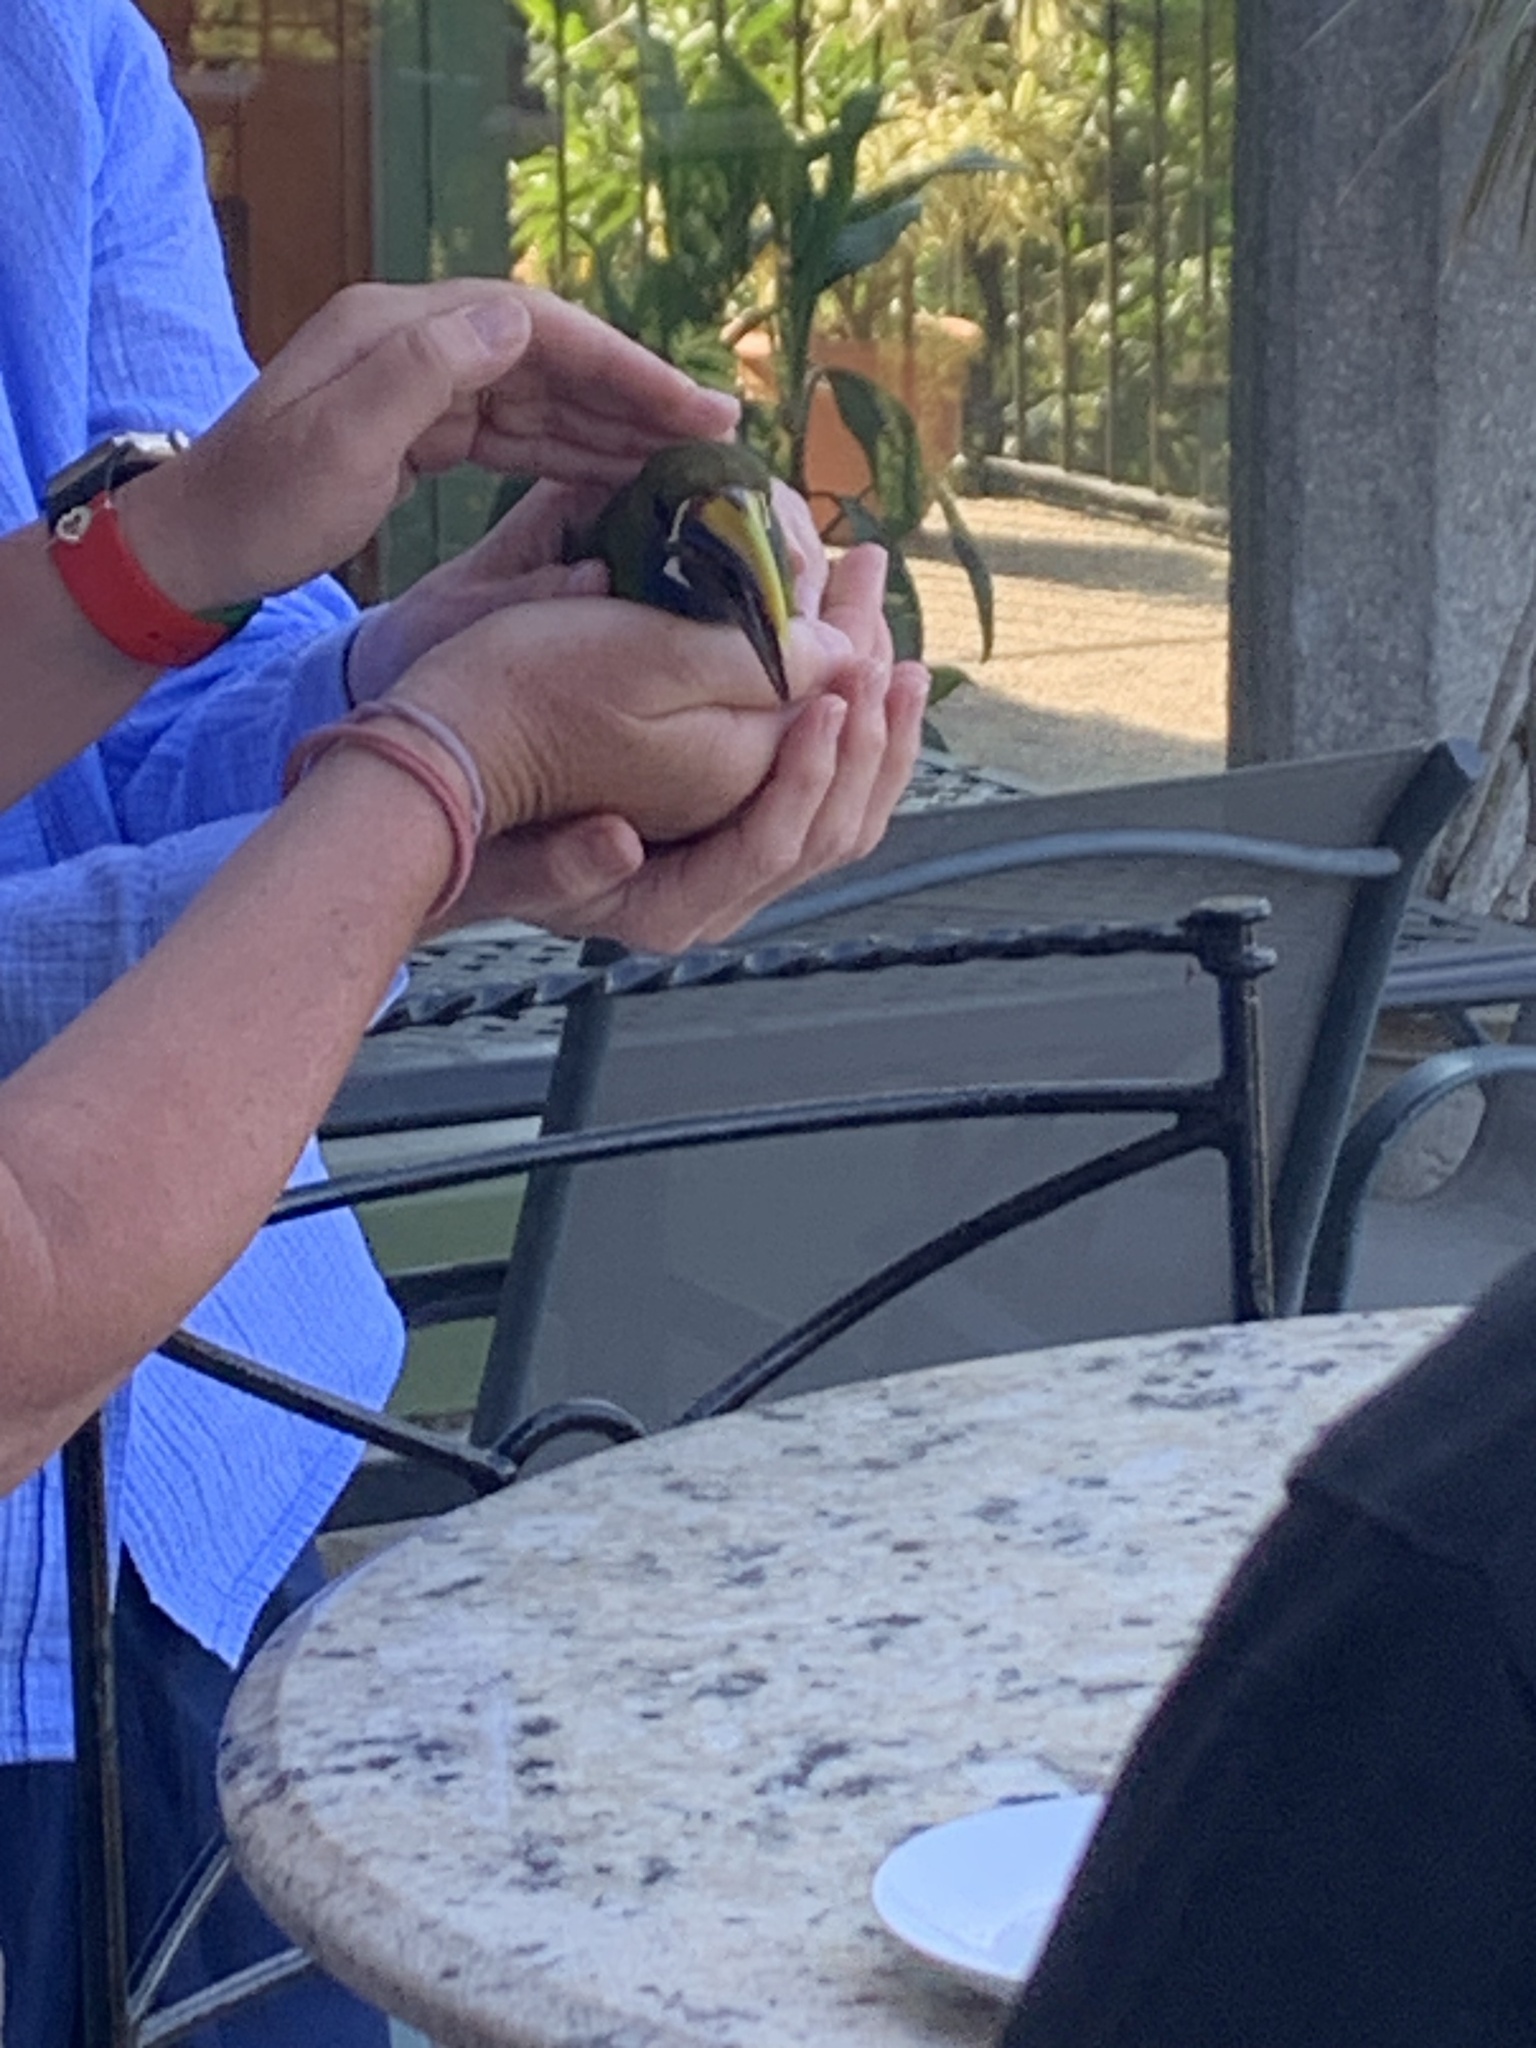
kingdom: Animalia
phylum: Chordata
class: Aves
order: Piciformes
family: Ramphastidae
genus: Aulacorhynchus
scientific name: Aulacorhynchus prasinus
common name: Emerald toucanet
